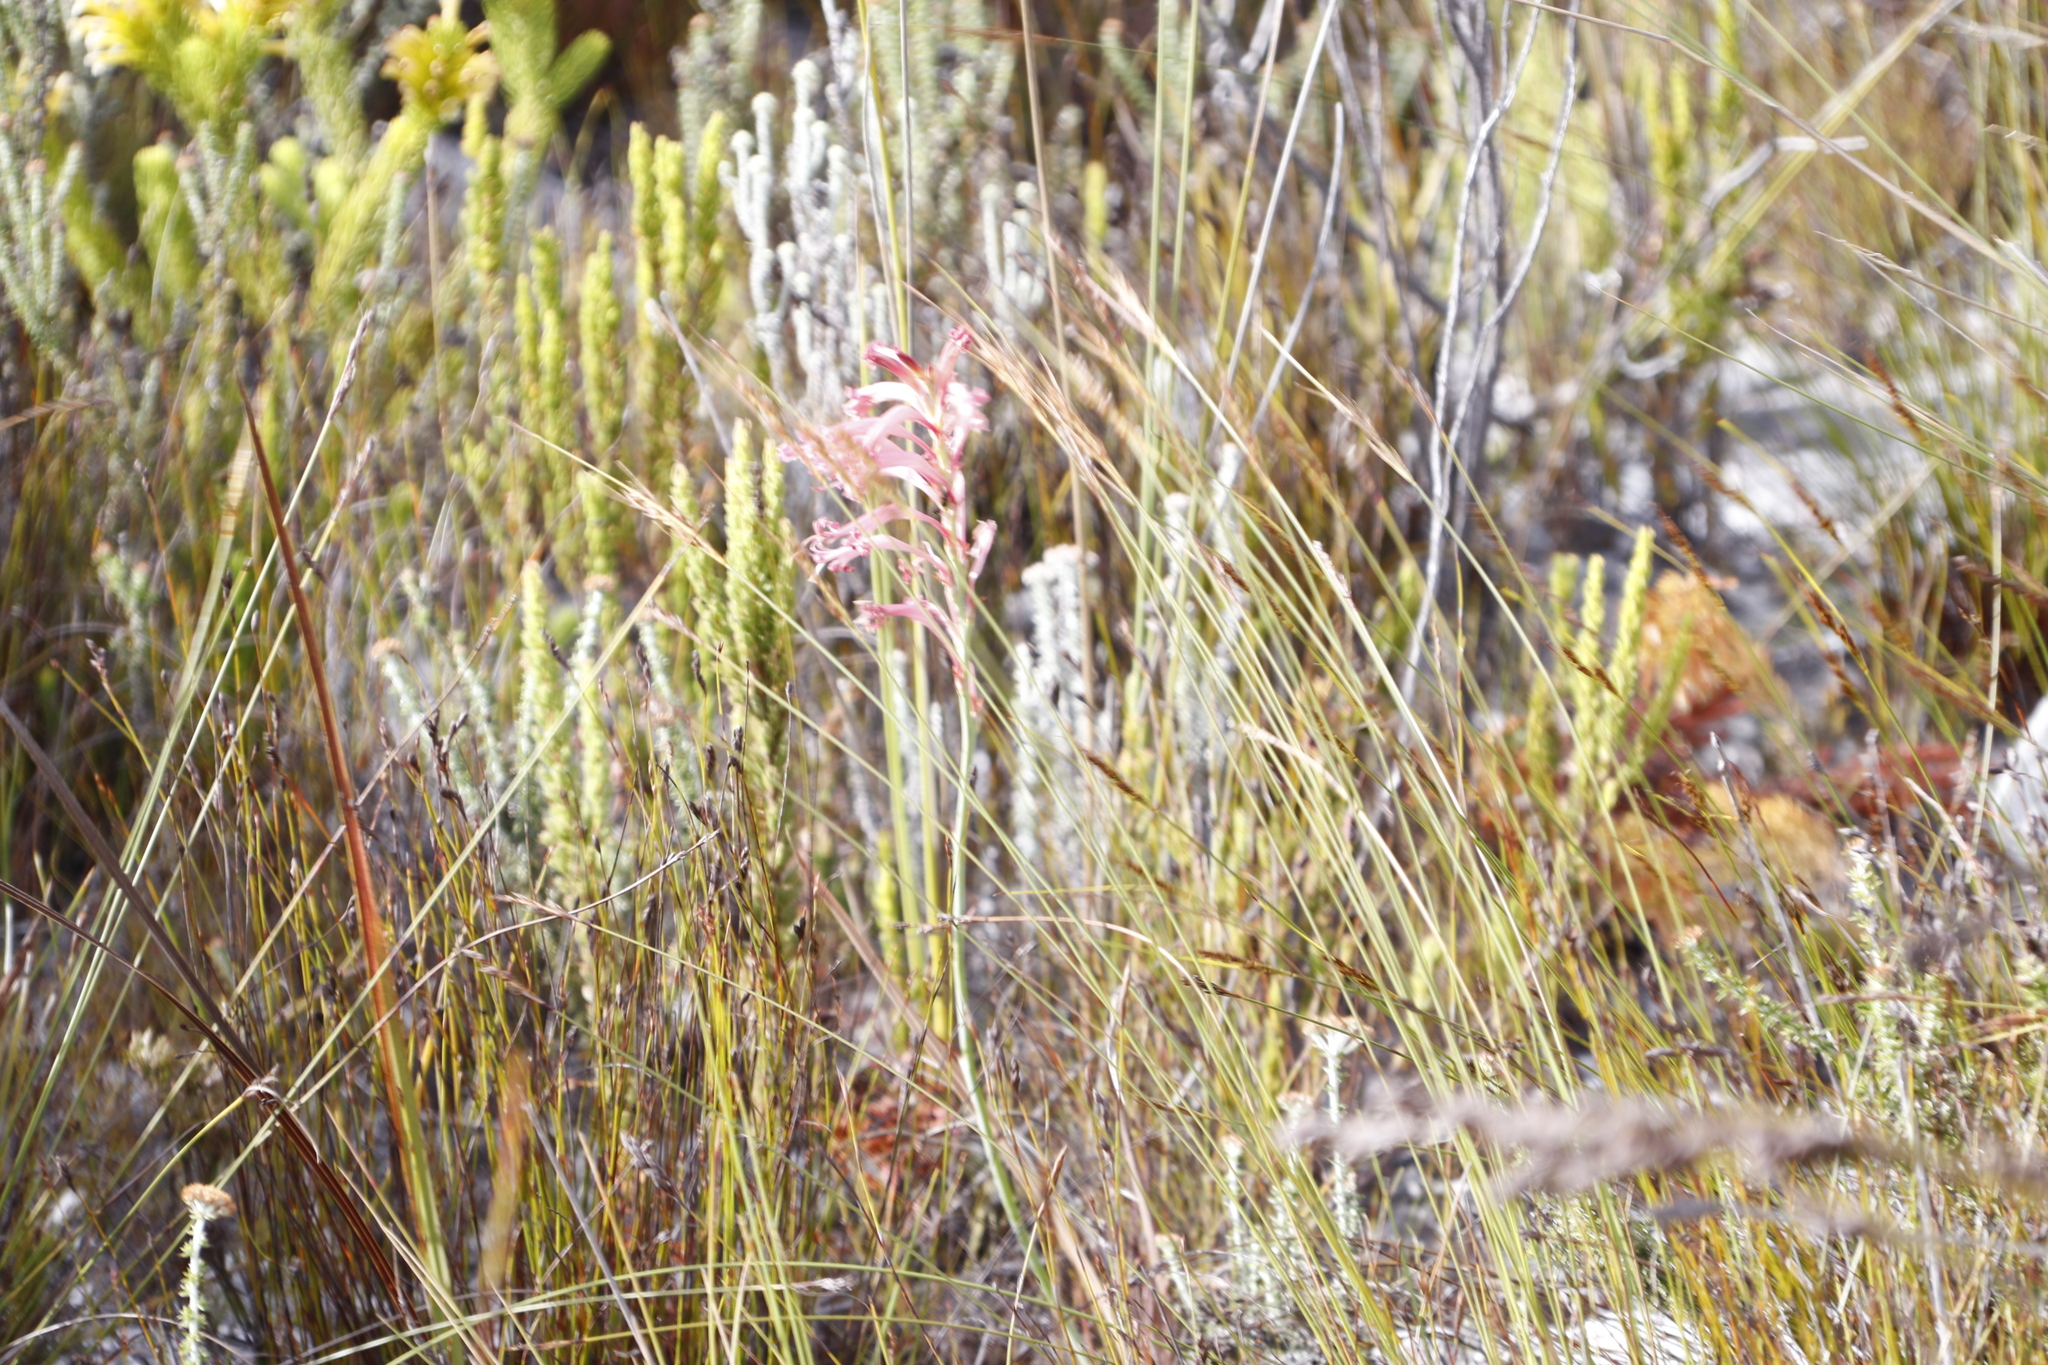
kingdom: Plantae
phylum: Tracheophyta
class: Liliopsida
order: Asparagales
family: Iridaceae
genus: Tritoniopsis
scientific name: Tritoniopsis antholyza
